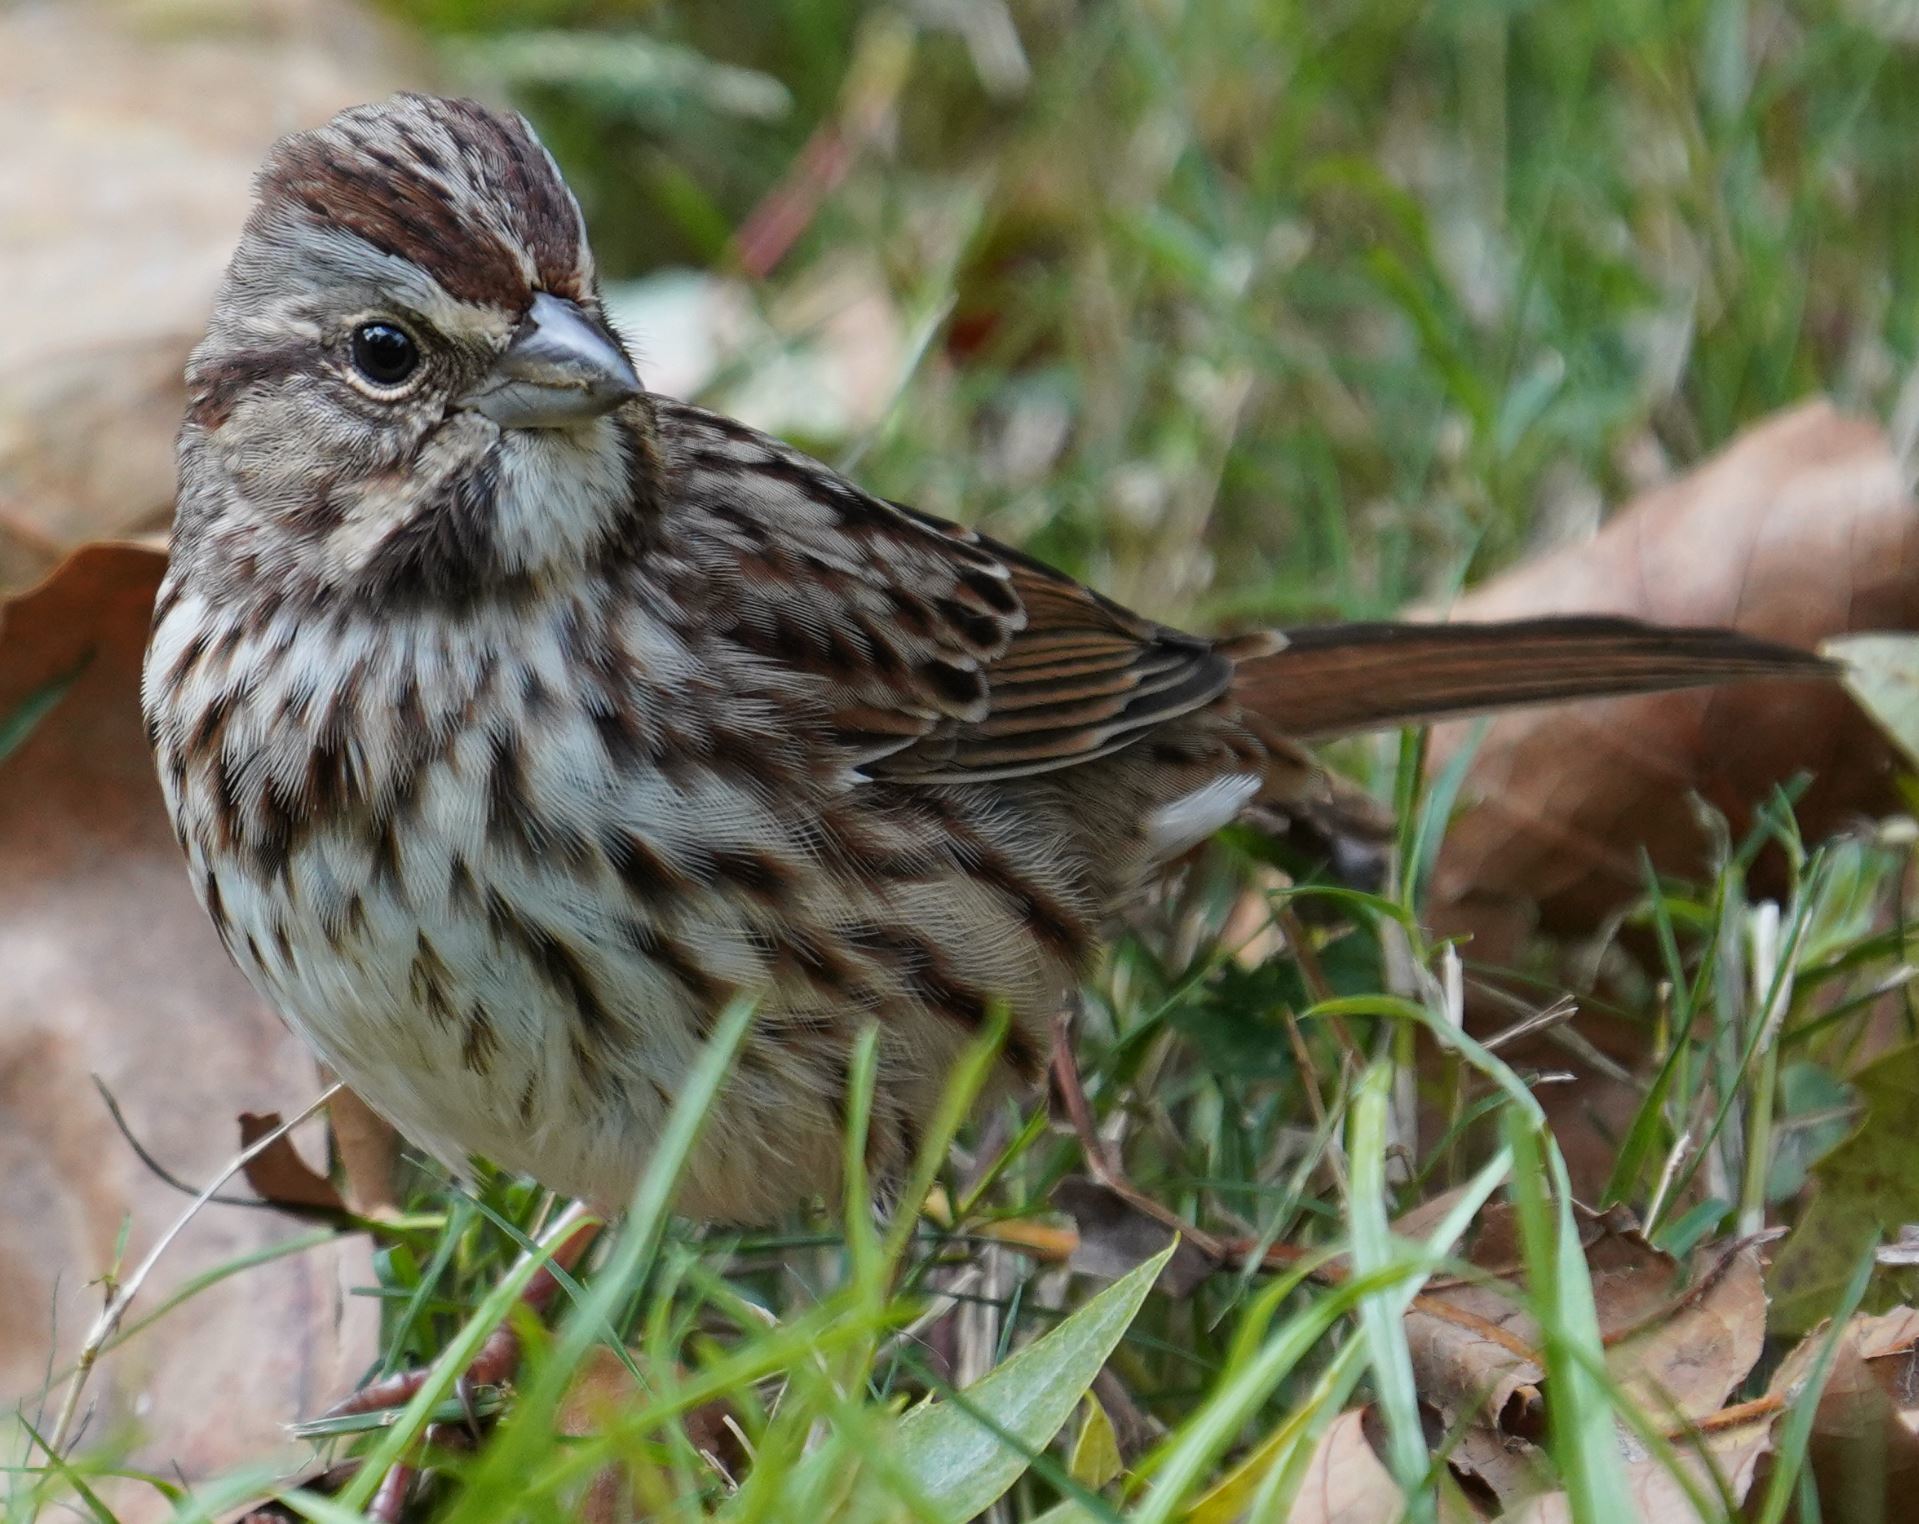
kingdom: Animalia
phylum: Chordata
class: Aves
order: Passeriformes
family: Passerellidae
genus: Melospiza
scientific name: Melospiza melodia
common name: Song sparrow
